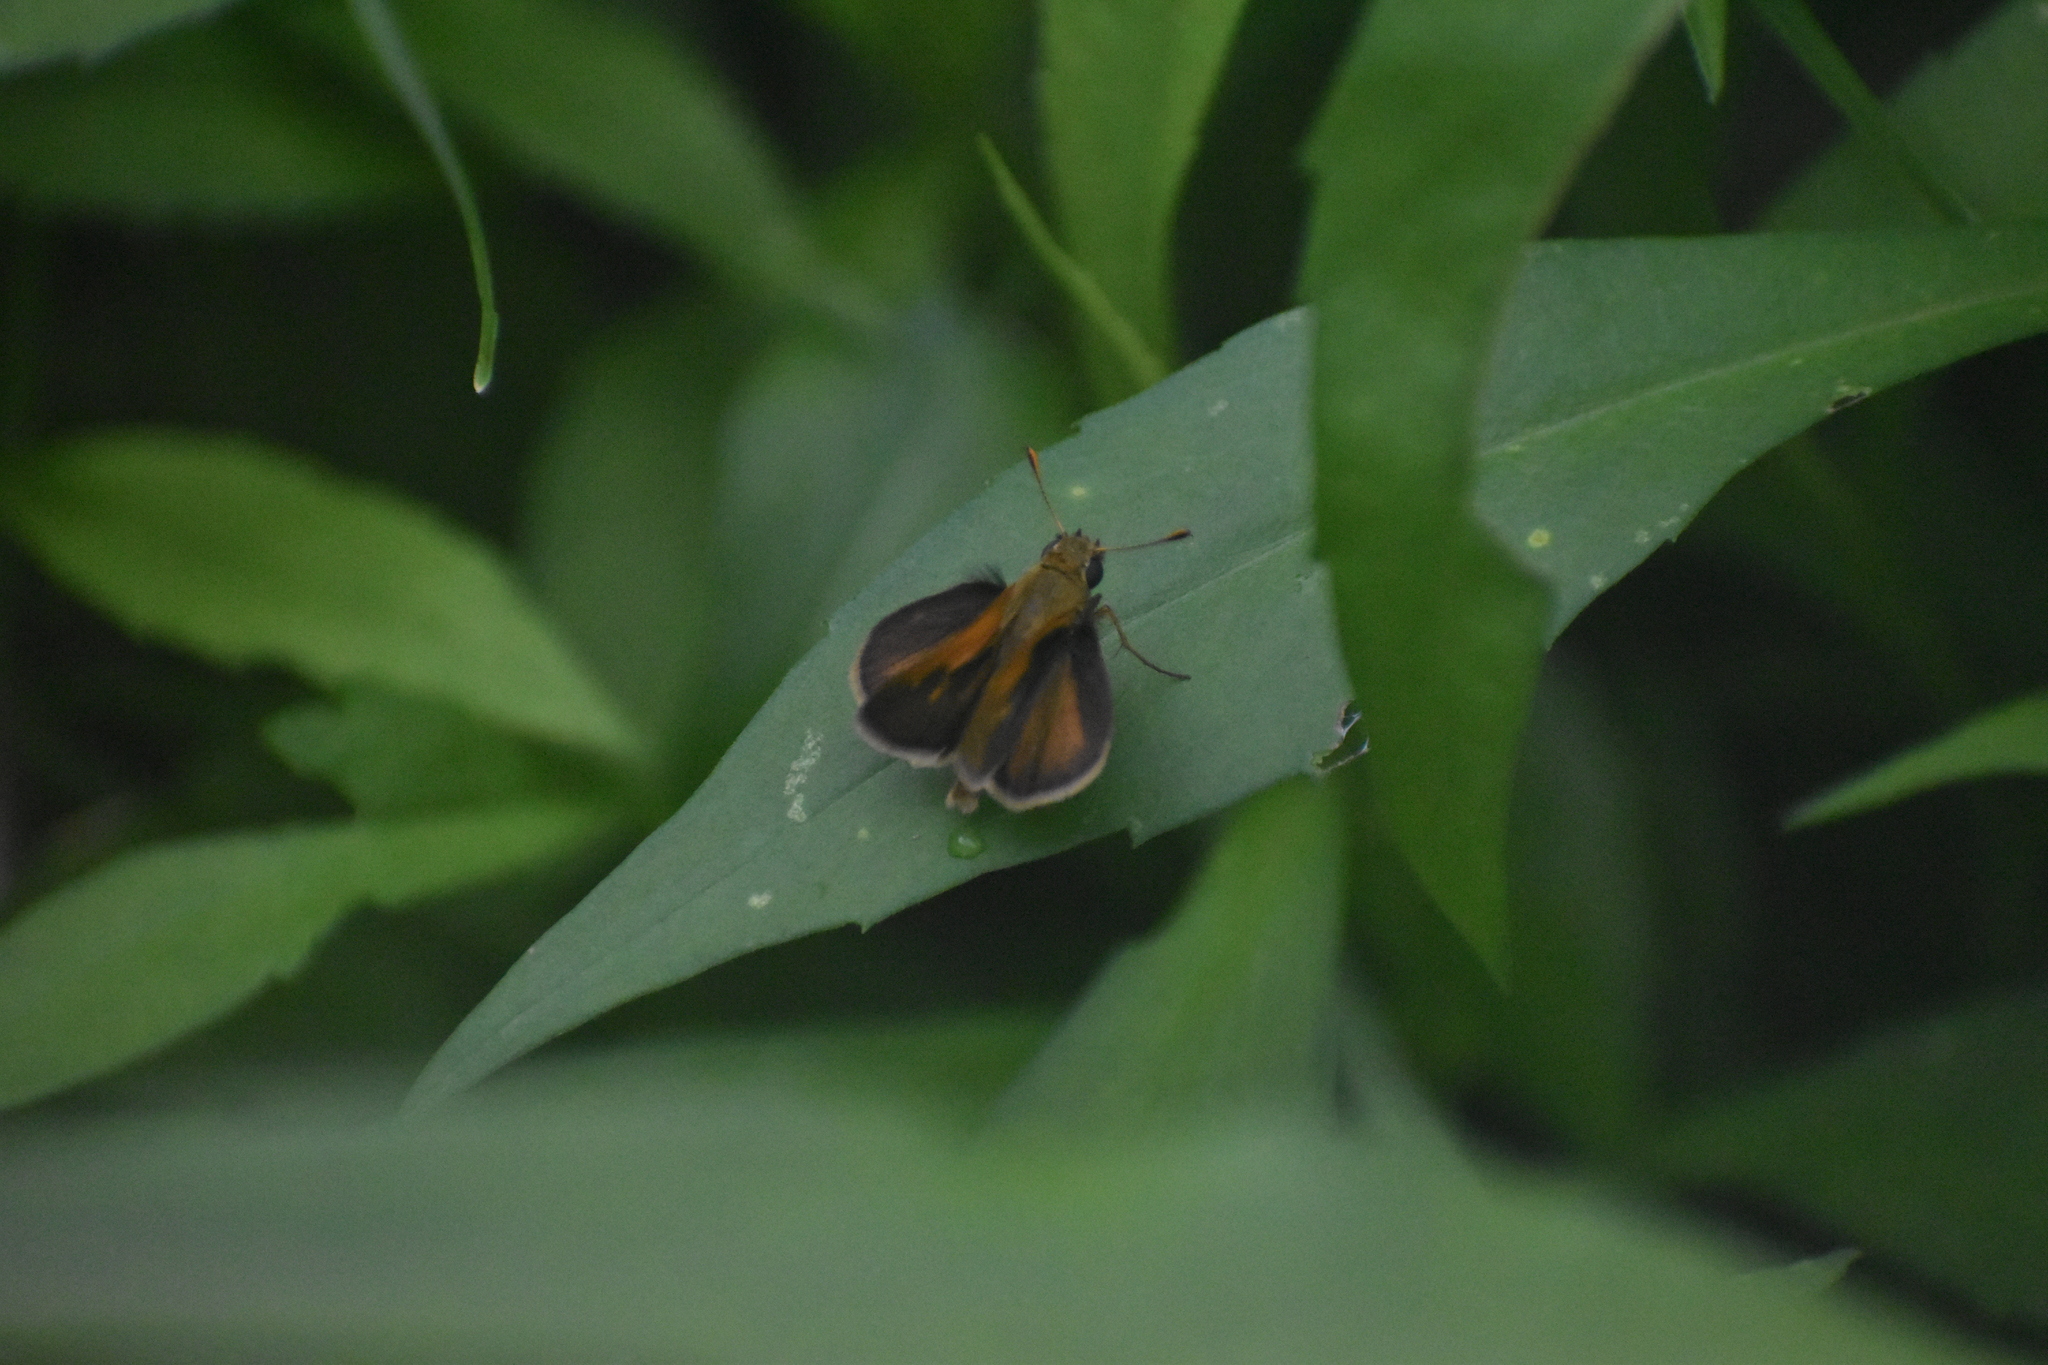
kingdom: Animalia
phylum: Arthropoda
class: Insecta
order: Lepidoptera
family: Hesperiidae
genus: Polites
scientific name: Polites themistocles
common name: Tawny-edged skipper
